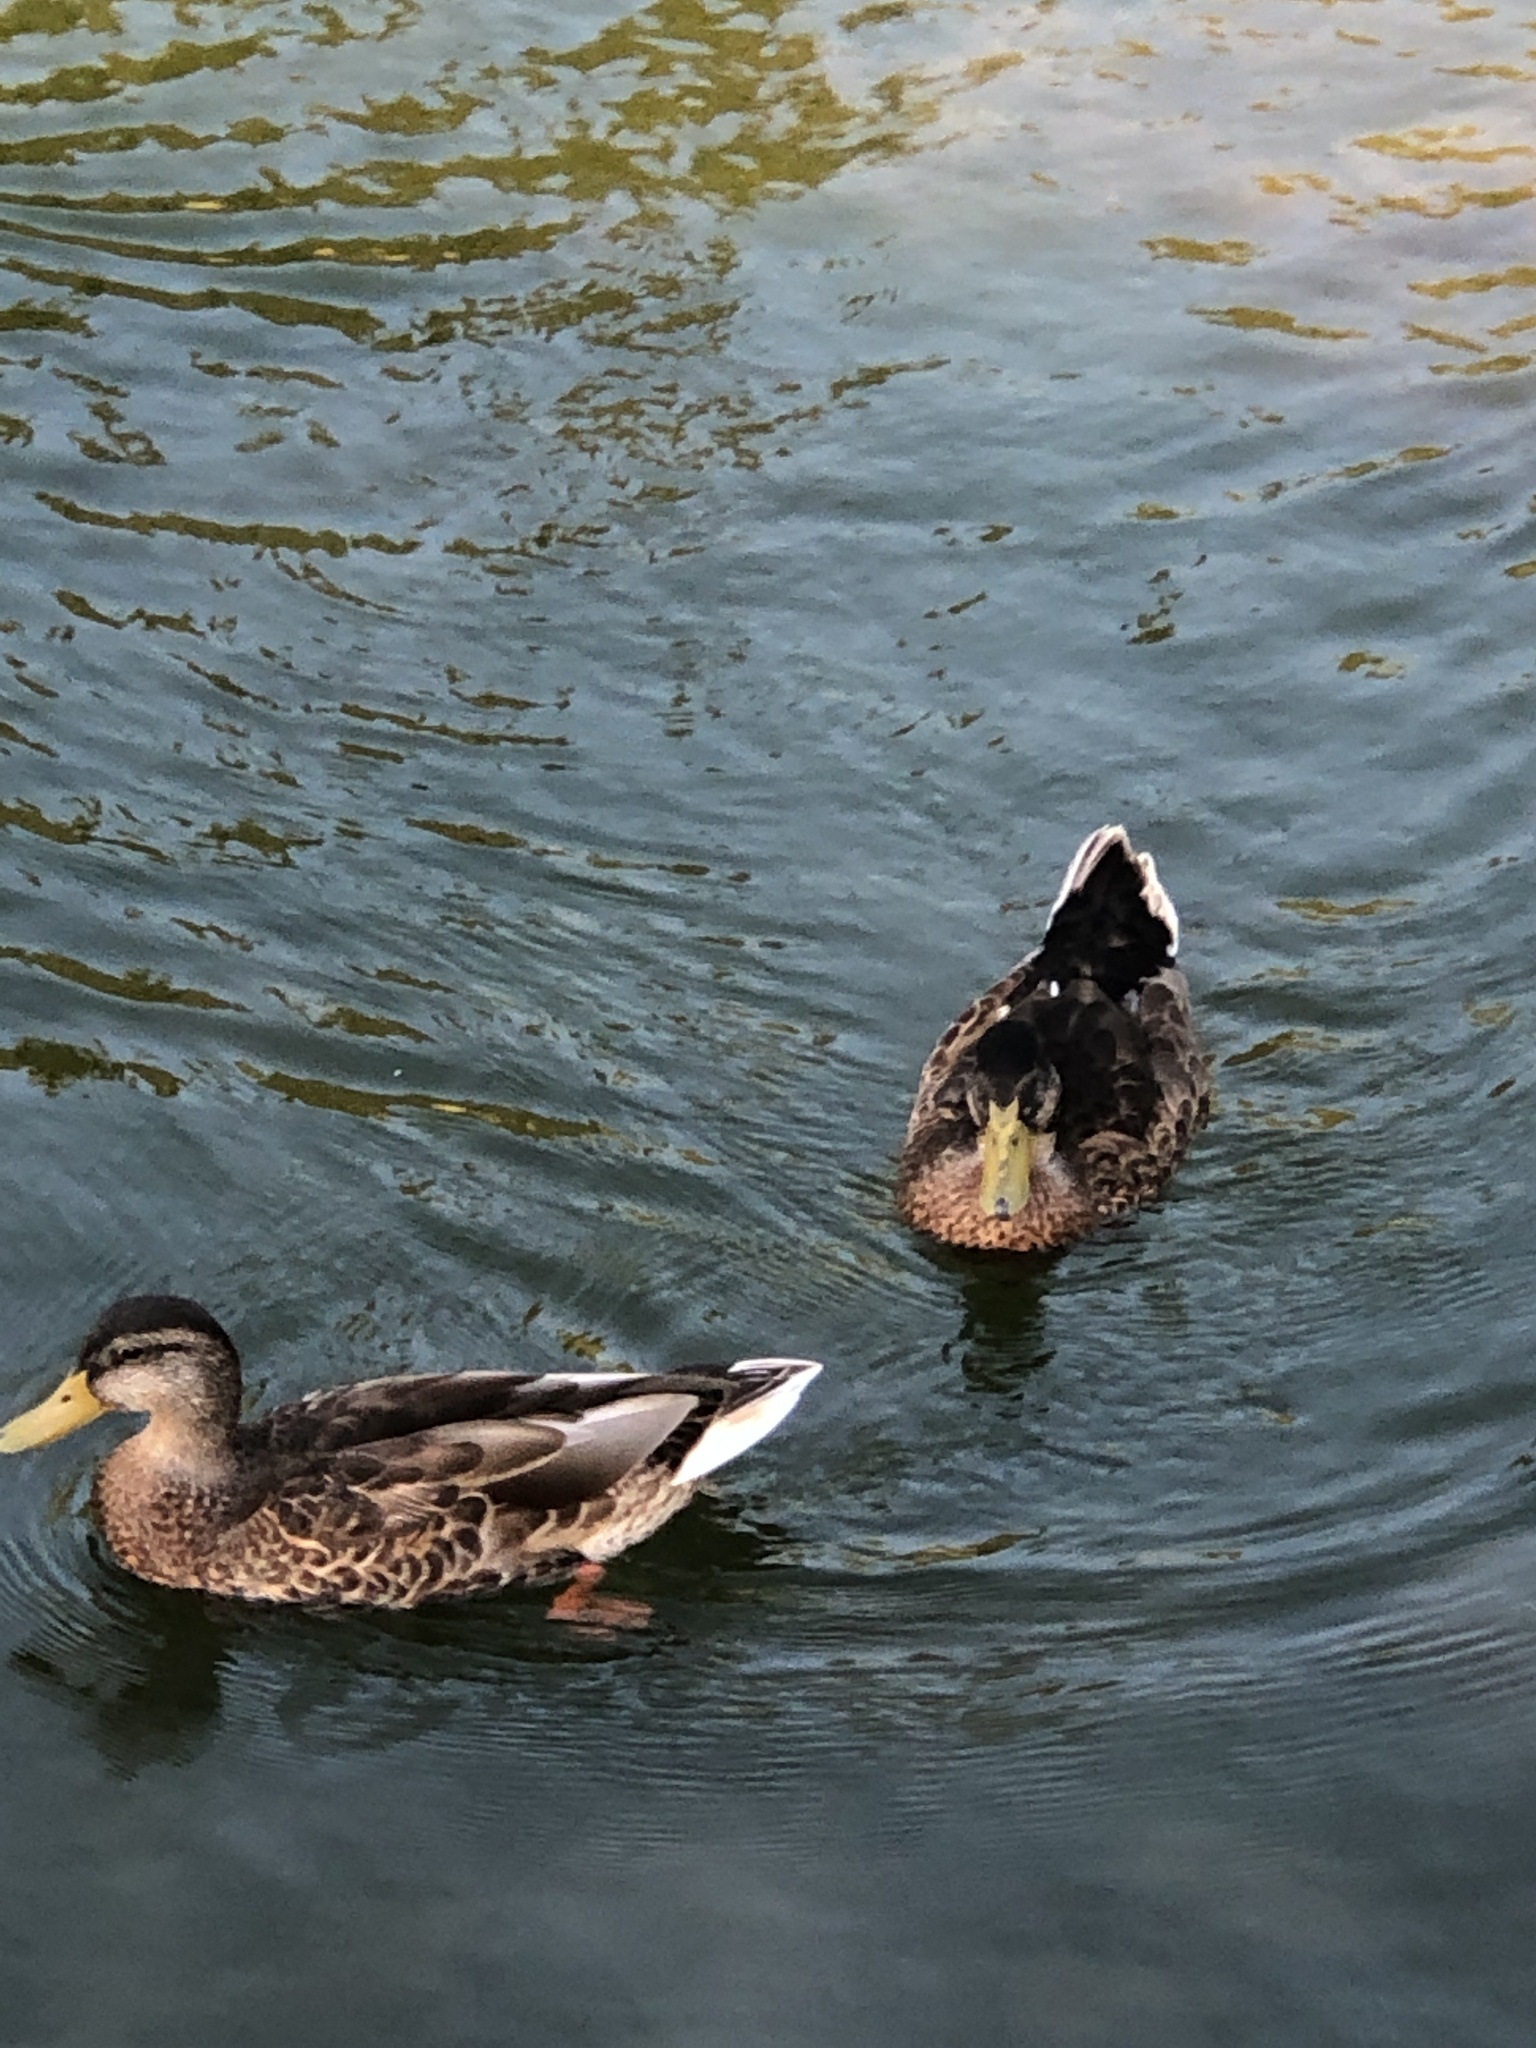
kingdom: Animalia
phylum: Chordata
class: Aves
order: Anseriformes
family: Anatidae
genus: Anas
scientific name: Anas platyrhynchos
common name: Mallard
